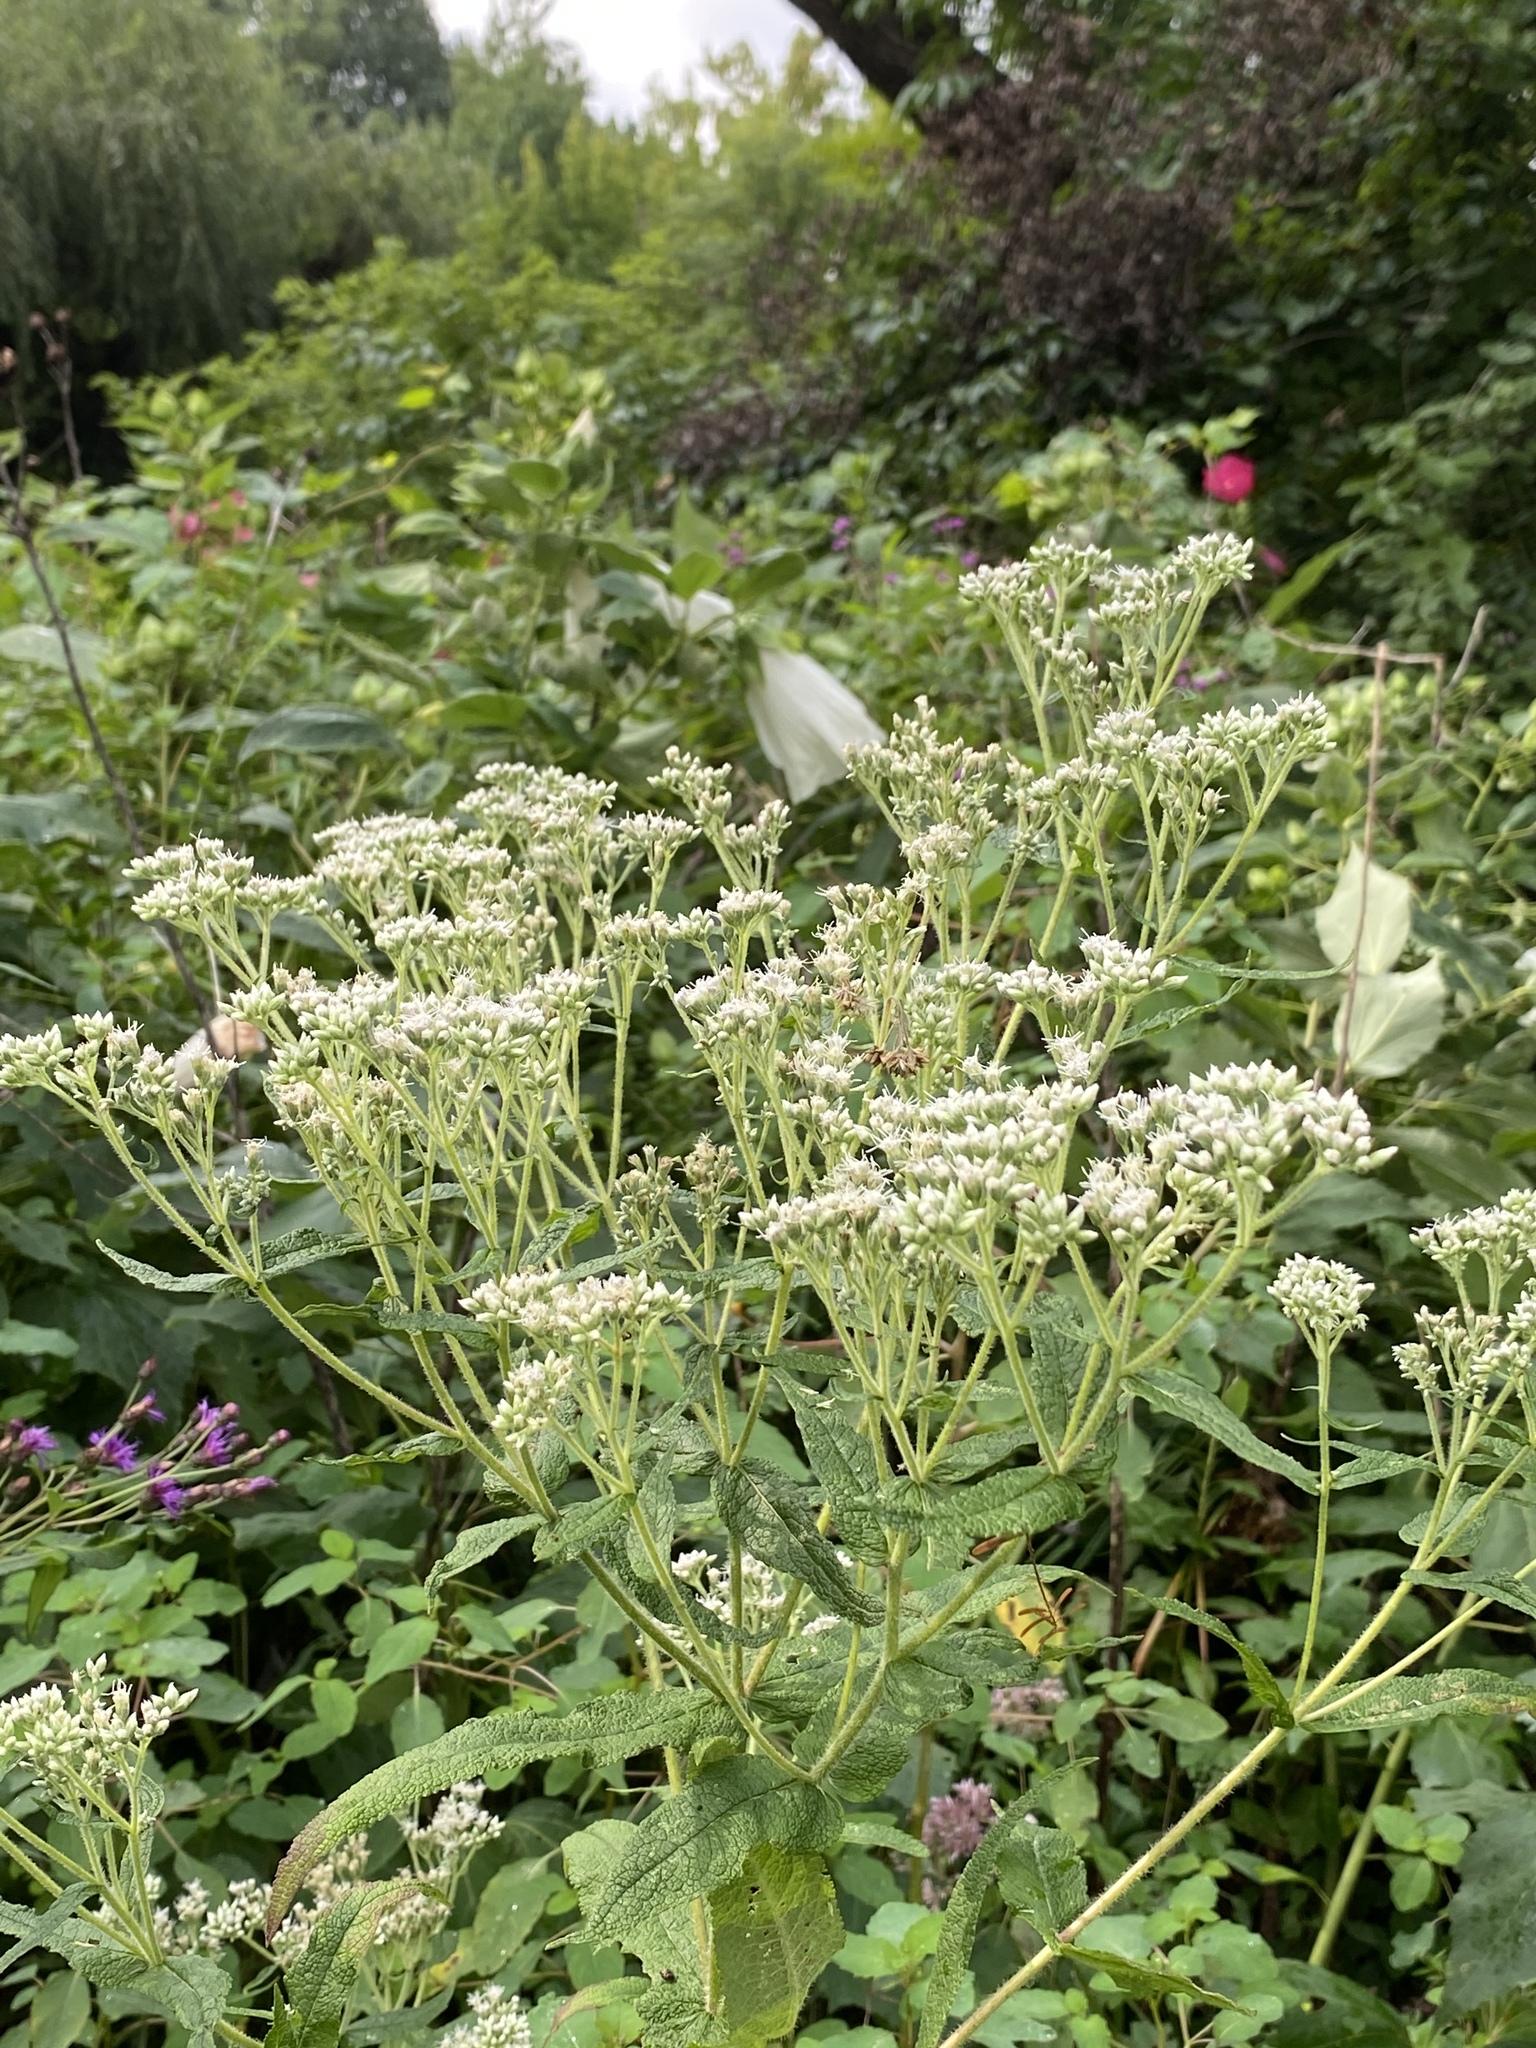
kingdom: Plantae
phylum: Tracheophyta
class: Magnoliopsida
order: Asterales
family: Asteraceae
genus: Eupatorium
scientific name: Eupatorium perfoliatum
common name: Boneset
